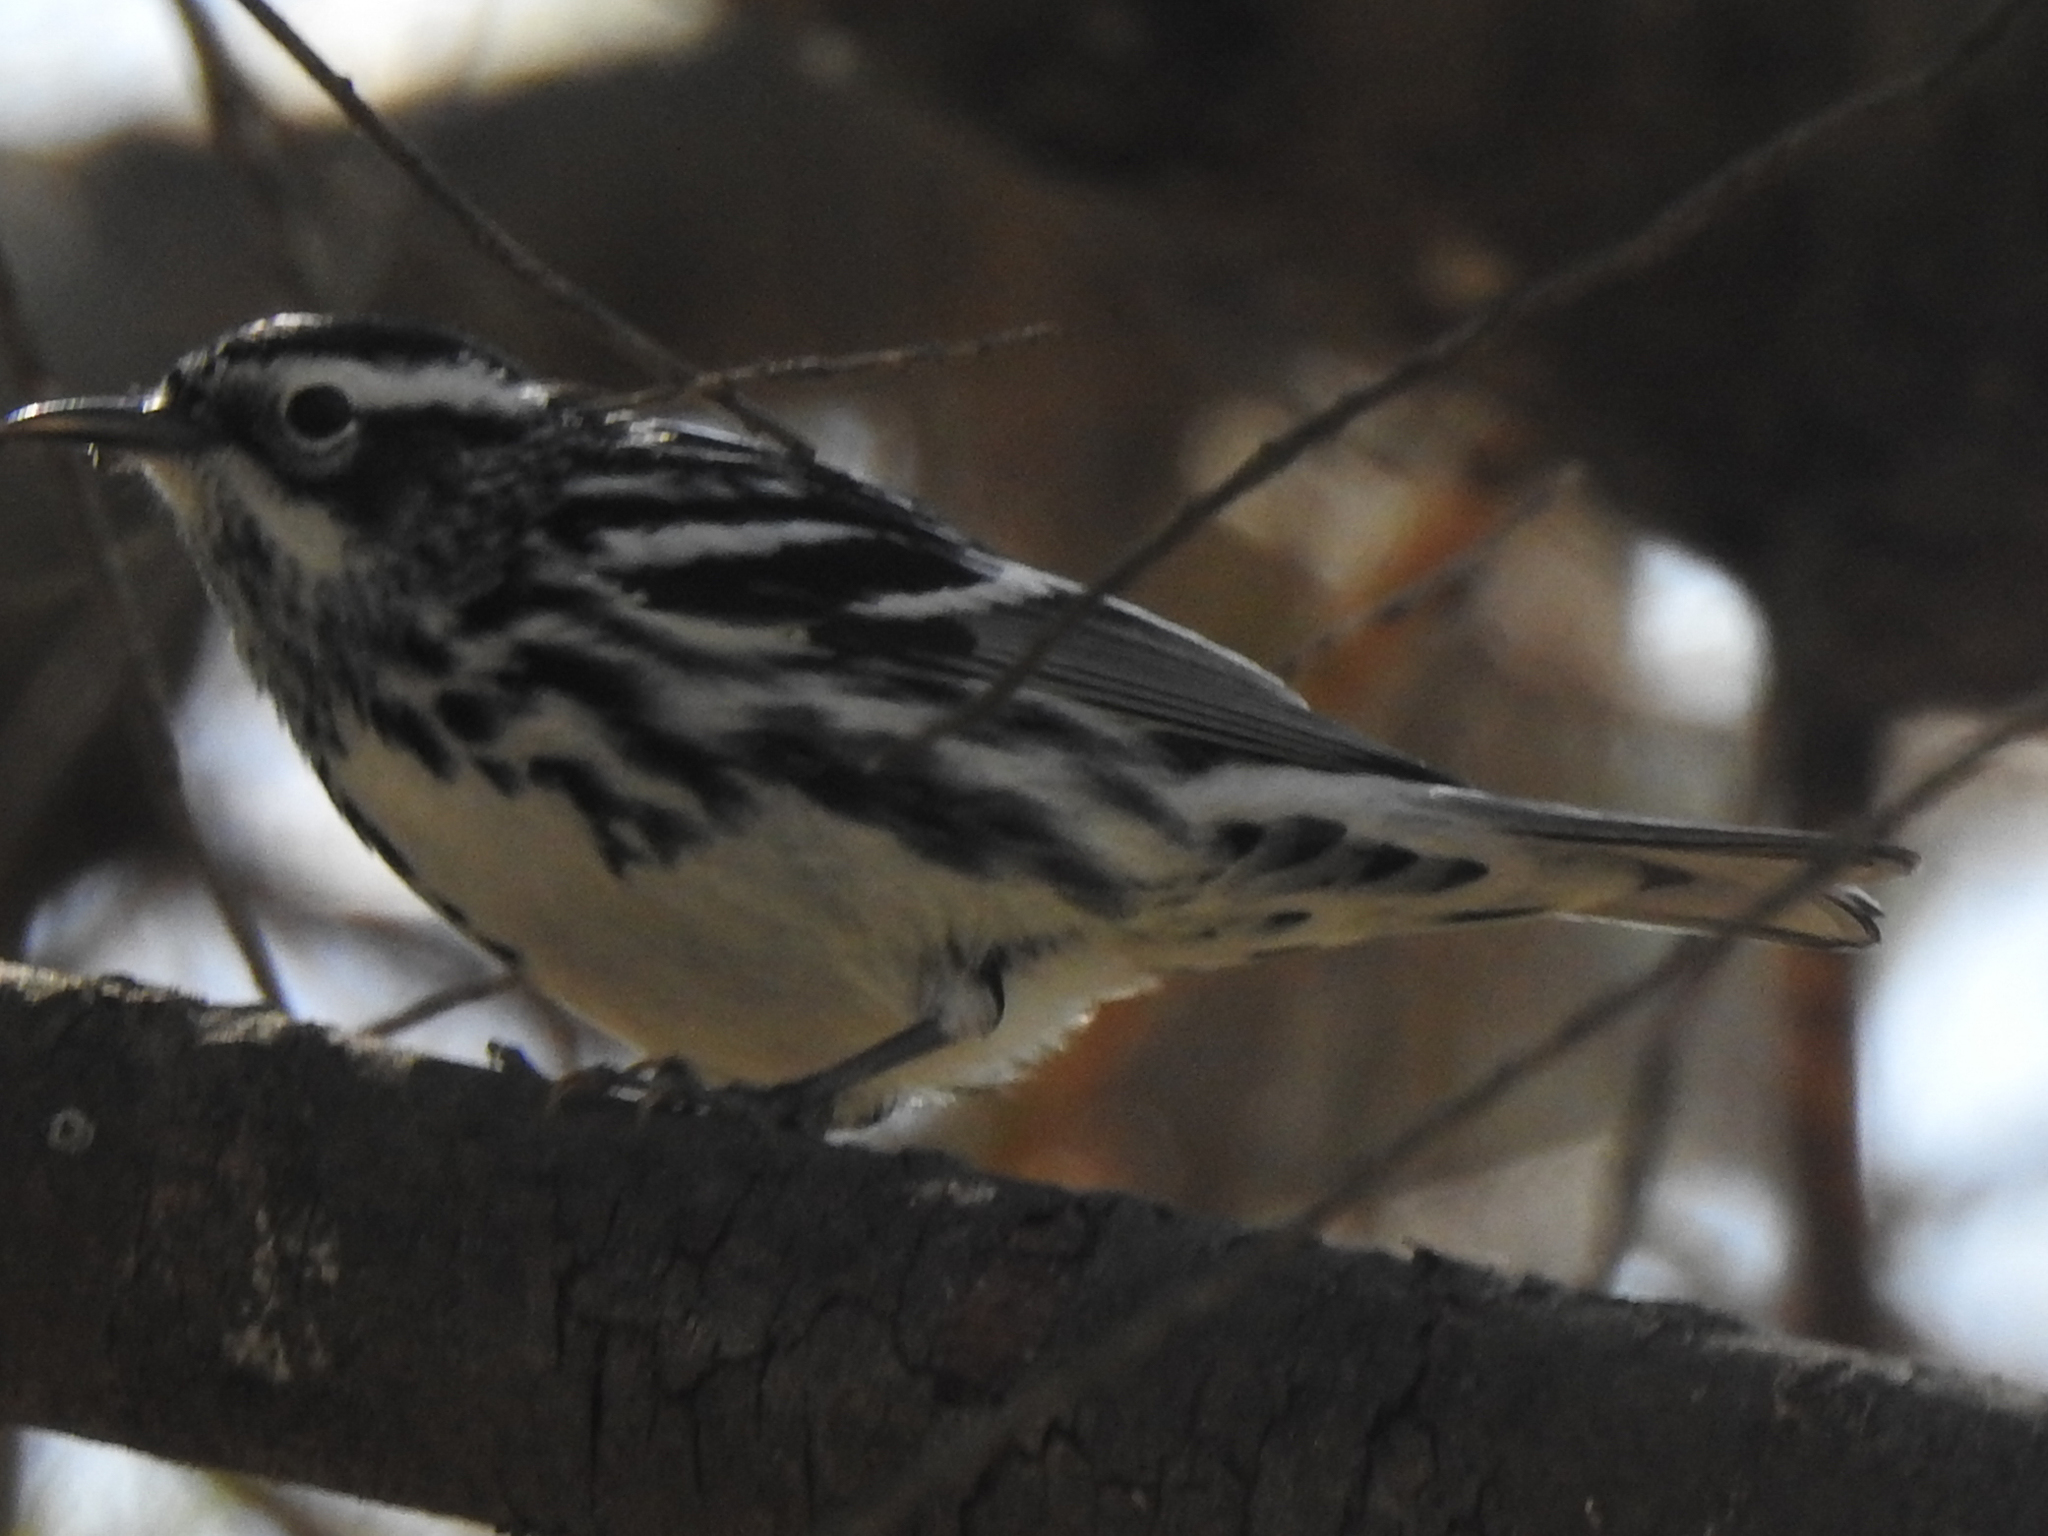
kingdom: Animalia
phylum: Chordata
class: Aves
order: Passeriformes
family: Parulidae
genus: Mniotilta
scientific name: Mniotilta varia
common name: Black-and-white warbler
